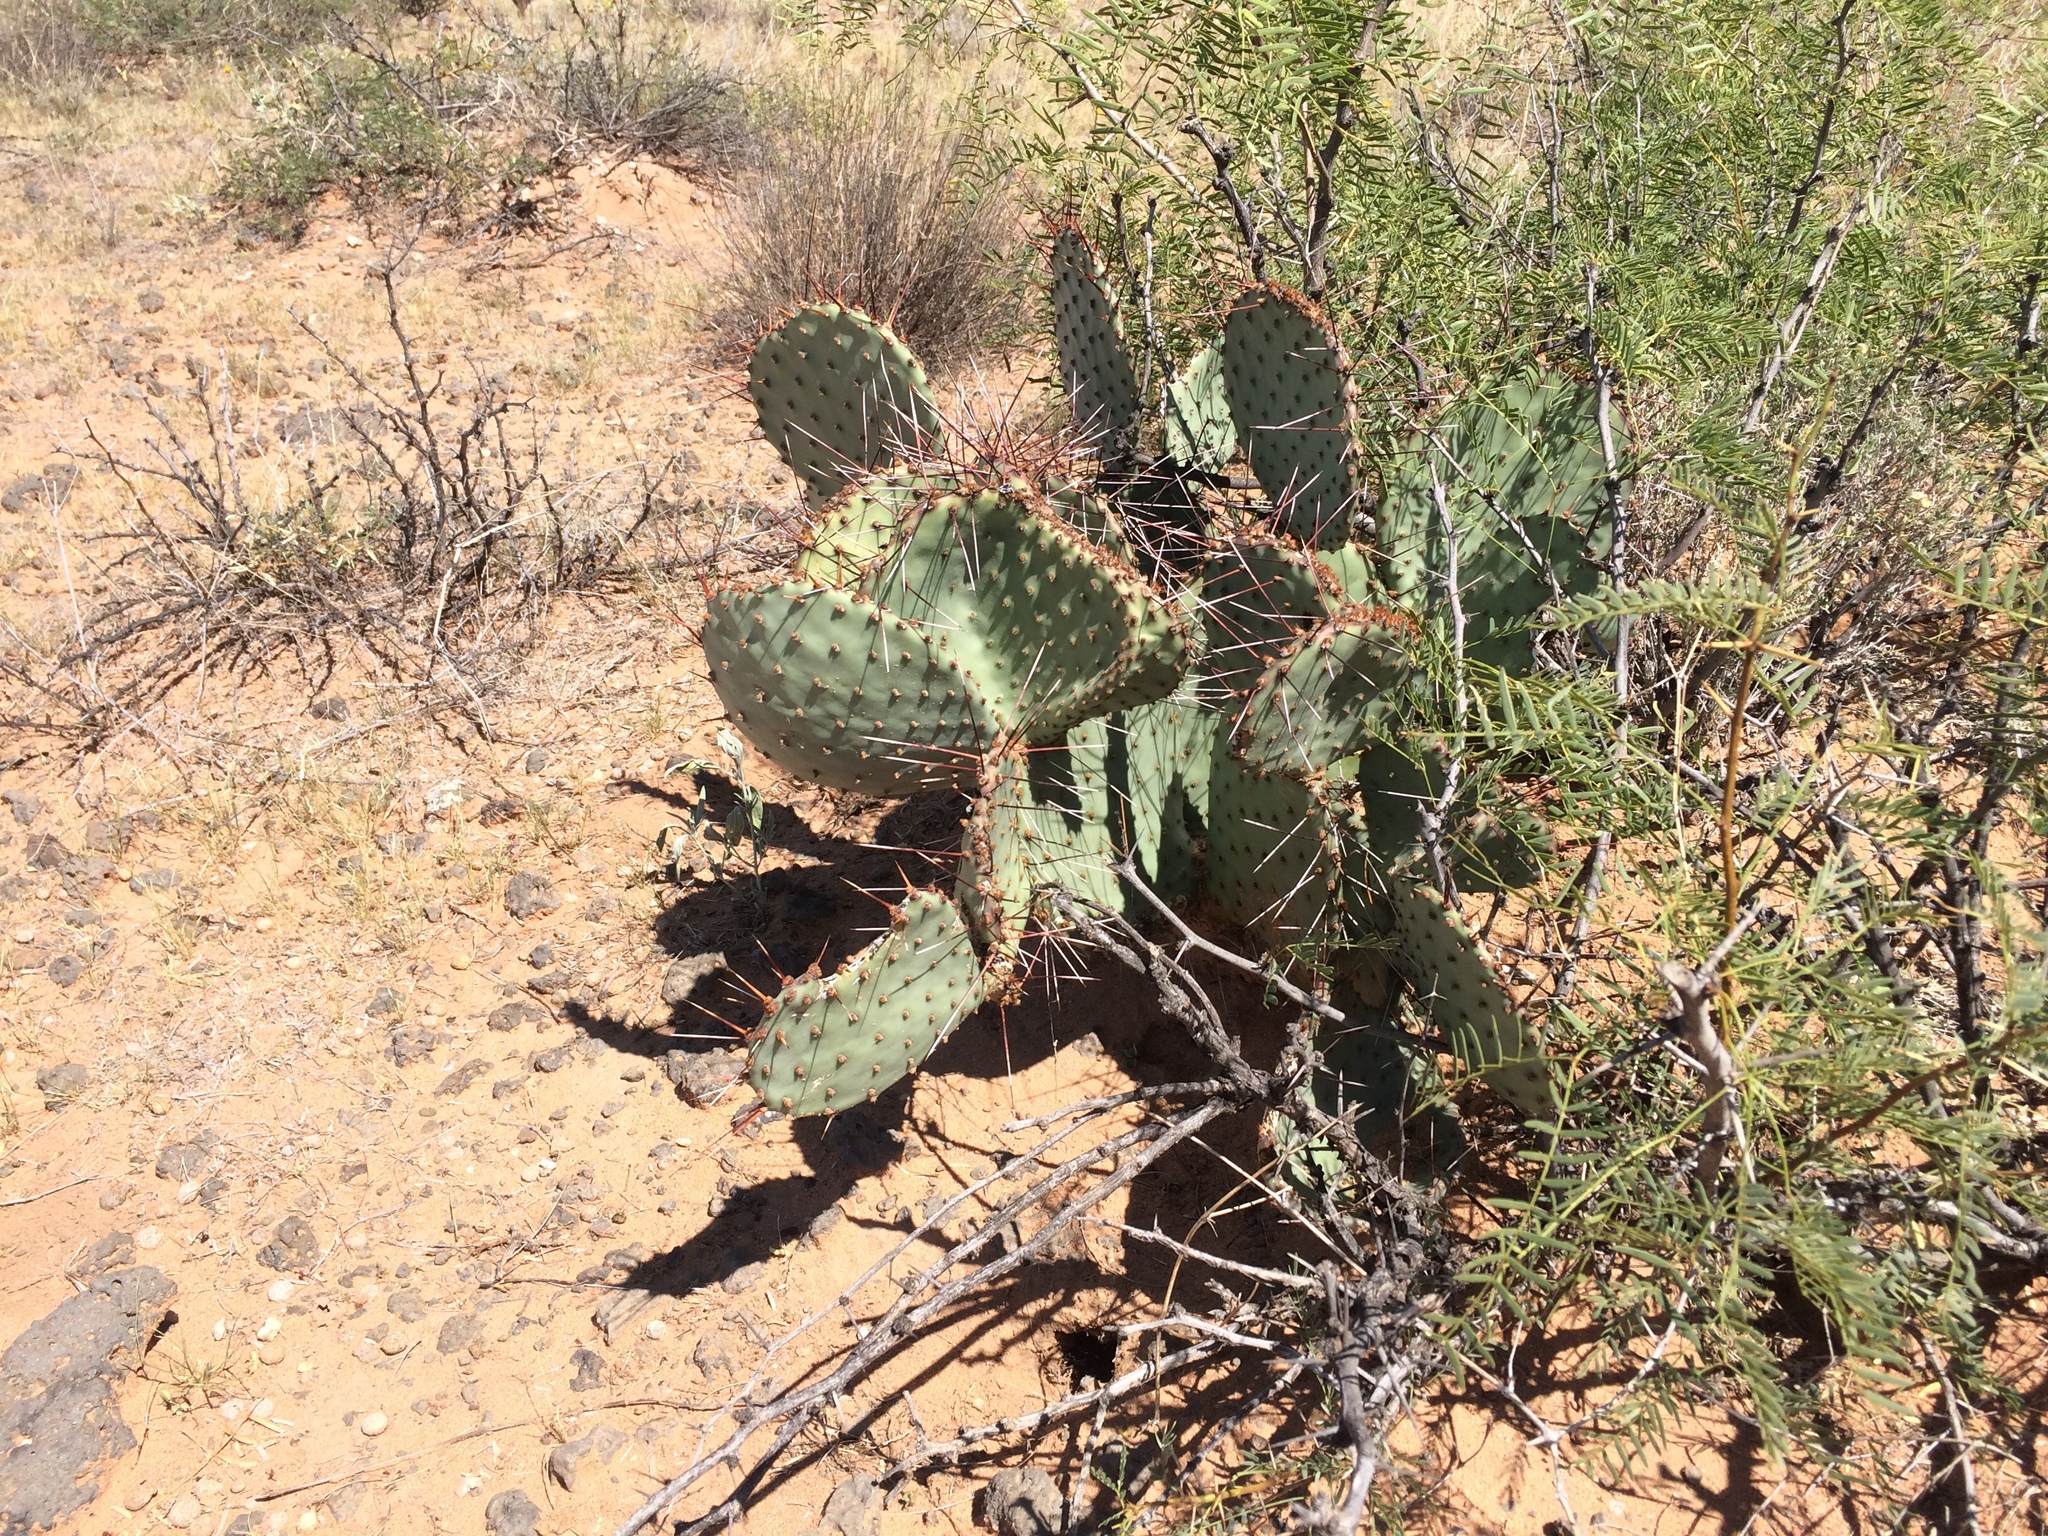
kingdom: Plantae
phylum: Tracheophyta
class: Magnoliopsida
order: Caryophyllales
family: Cactaceae
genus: Opuntia
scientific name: Opuntia macrocentra
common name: Purple prickly-pear
